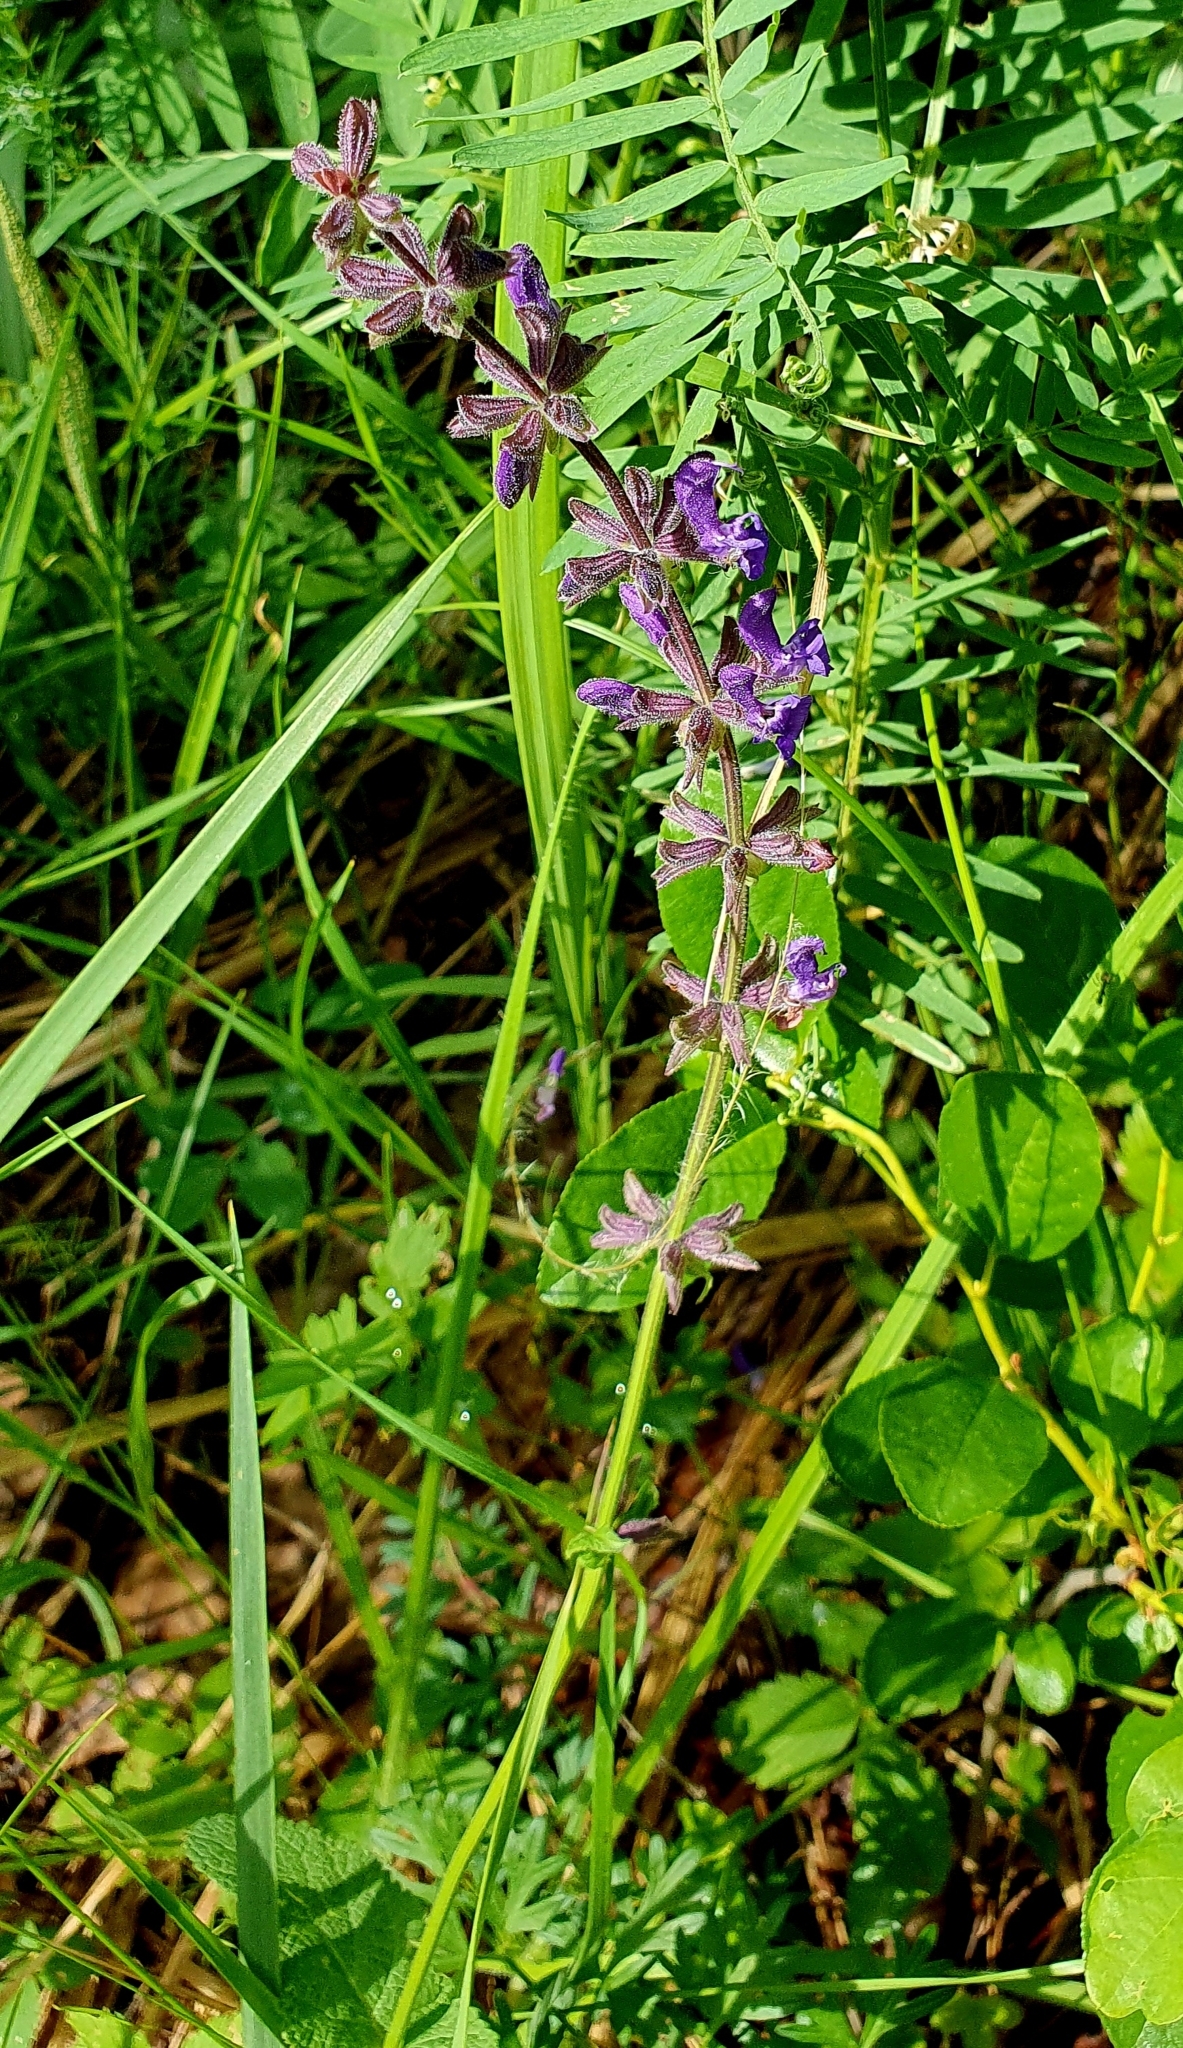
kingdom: Plantae
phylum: Tracheophyta
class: Magnoliopsida
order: Lamiales
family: Lamiaceae
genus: Salvia
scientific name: Salvia dumetorum
